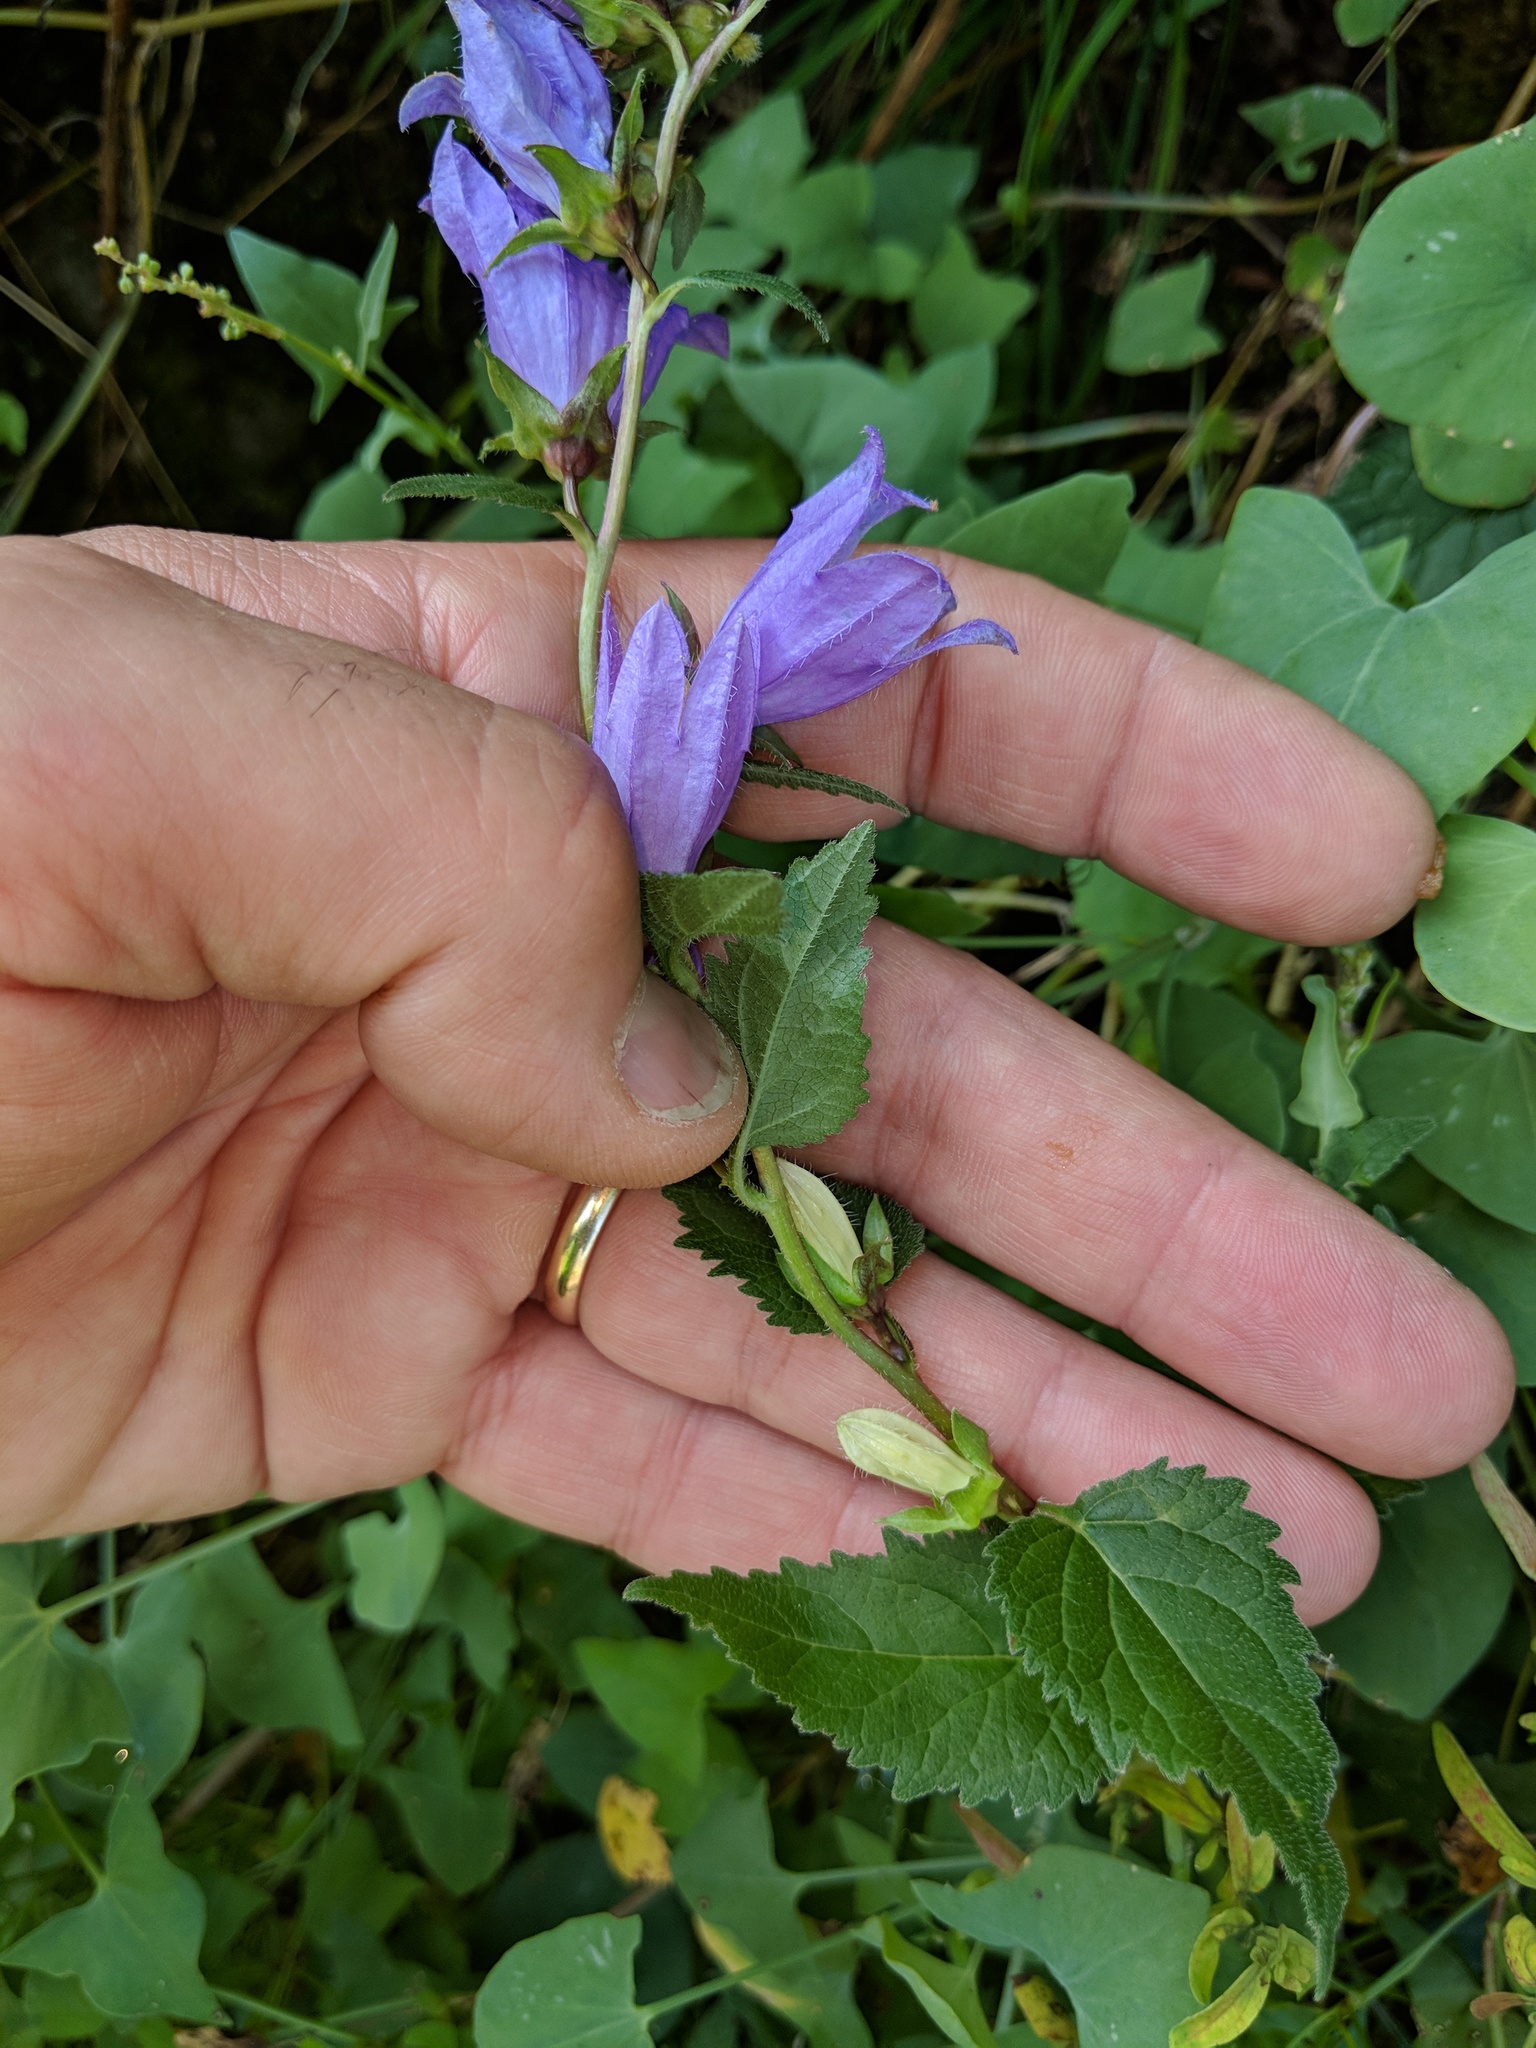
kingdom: Plantae
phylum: Tracheophyta
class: Magnoliopsida
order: Asterales
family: Campanulaceae
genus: Campanula
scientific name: Campanula trachelium
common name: Nettle-leaved bellflower
